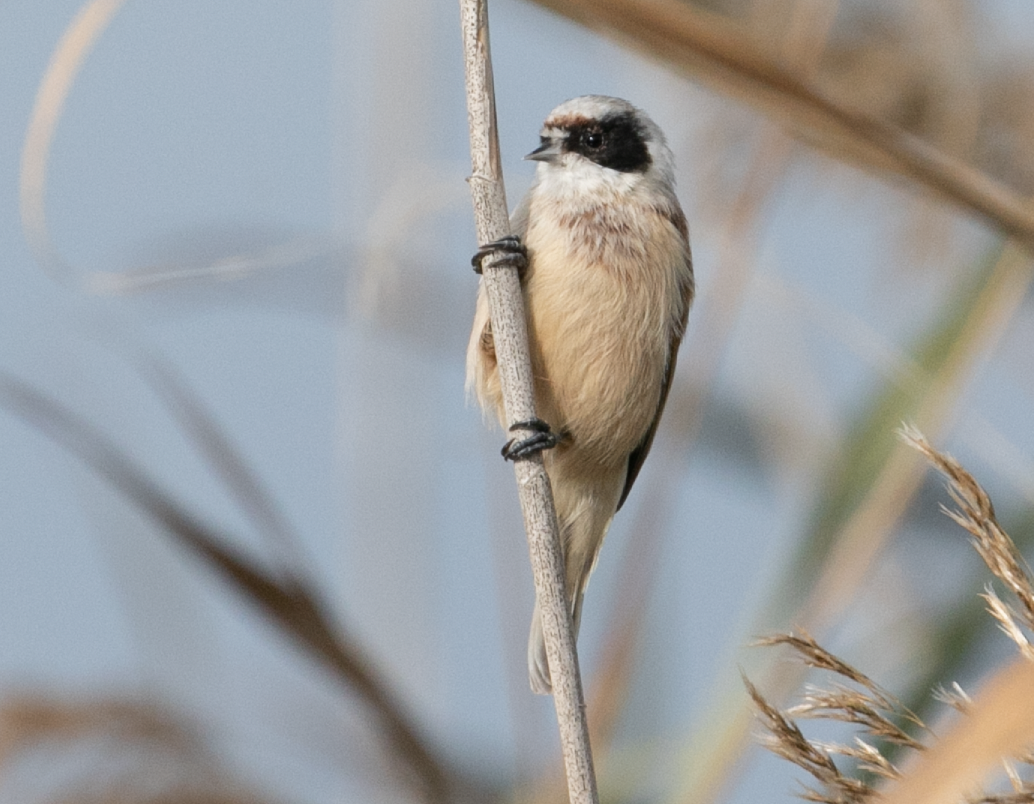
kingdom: Animalia
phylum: Chordata
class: Aves
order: Passeriformes
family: Remizidae
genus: Remiz
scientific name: Remiz pendulinus
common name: Eurasian penduline tit
